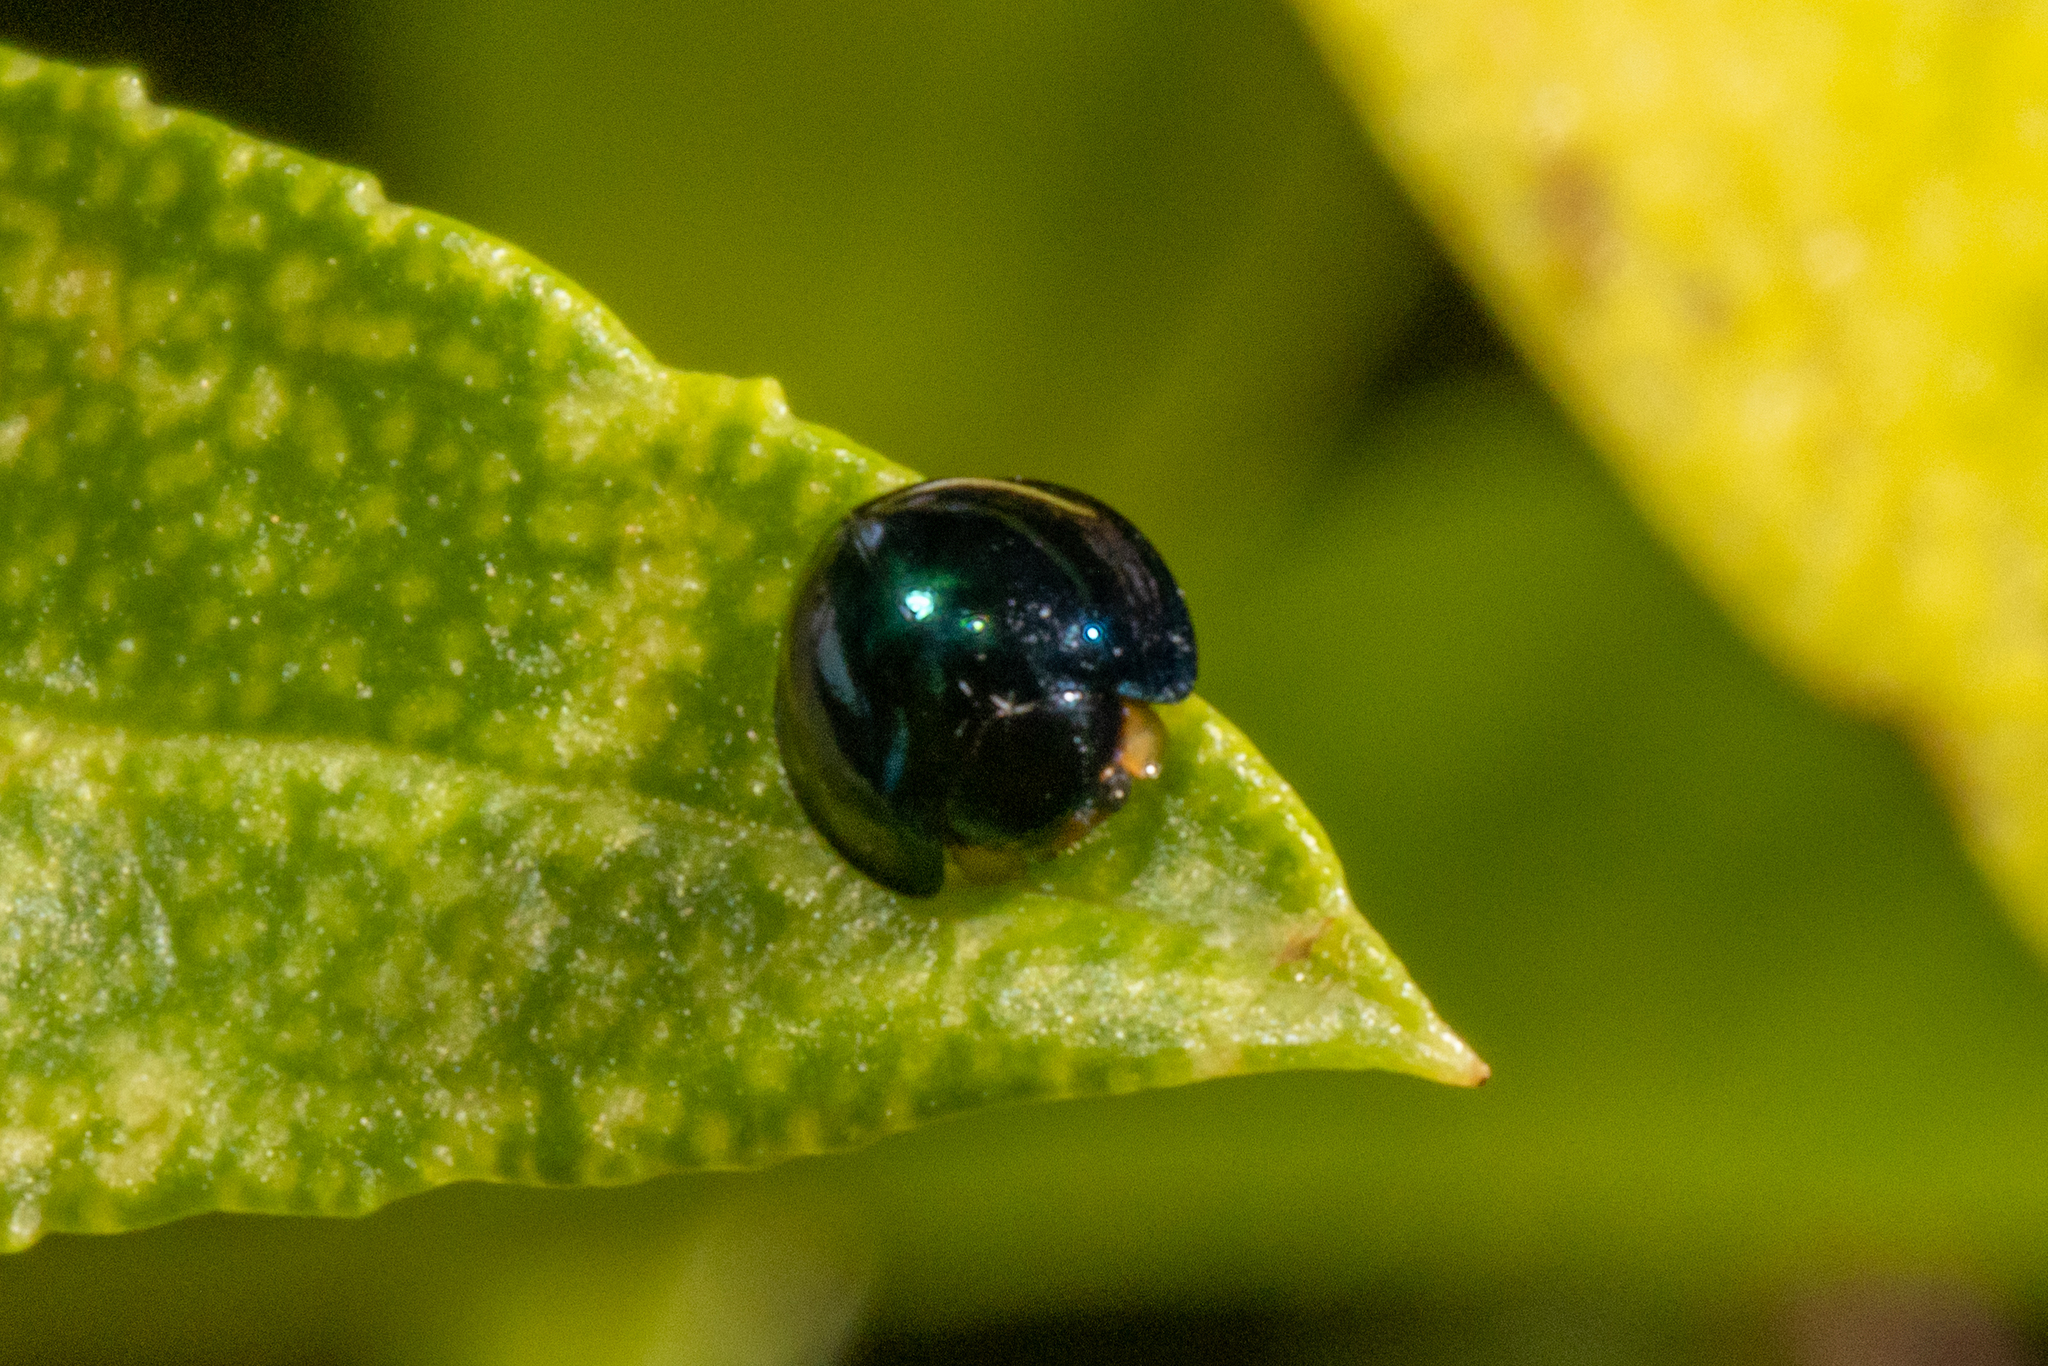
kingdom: Animalia
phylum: Arthropoda
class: Insecta
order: Coleoptera
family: Coccinellidae
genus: Halmus
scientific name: Halmus chalybeus
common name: Steel blue ladybird beetle
